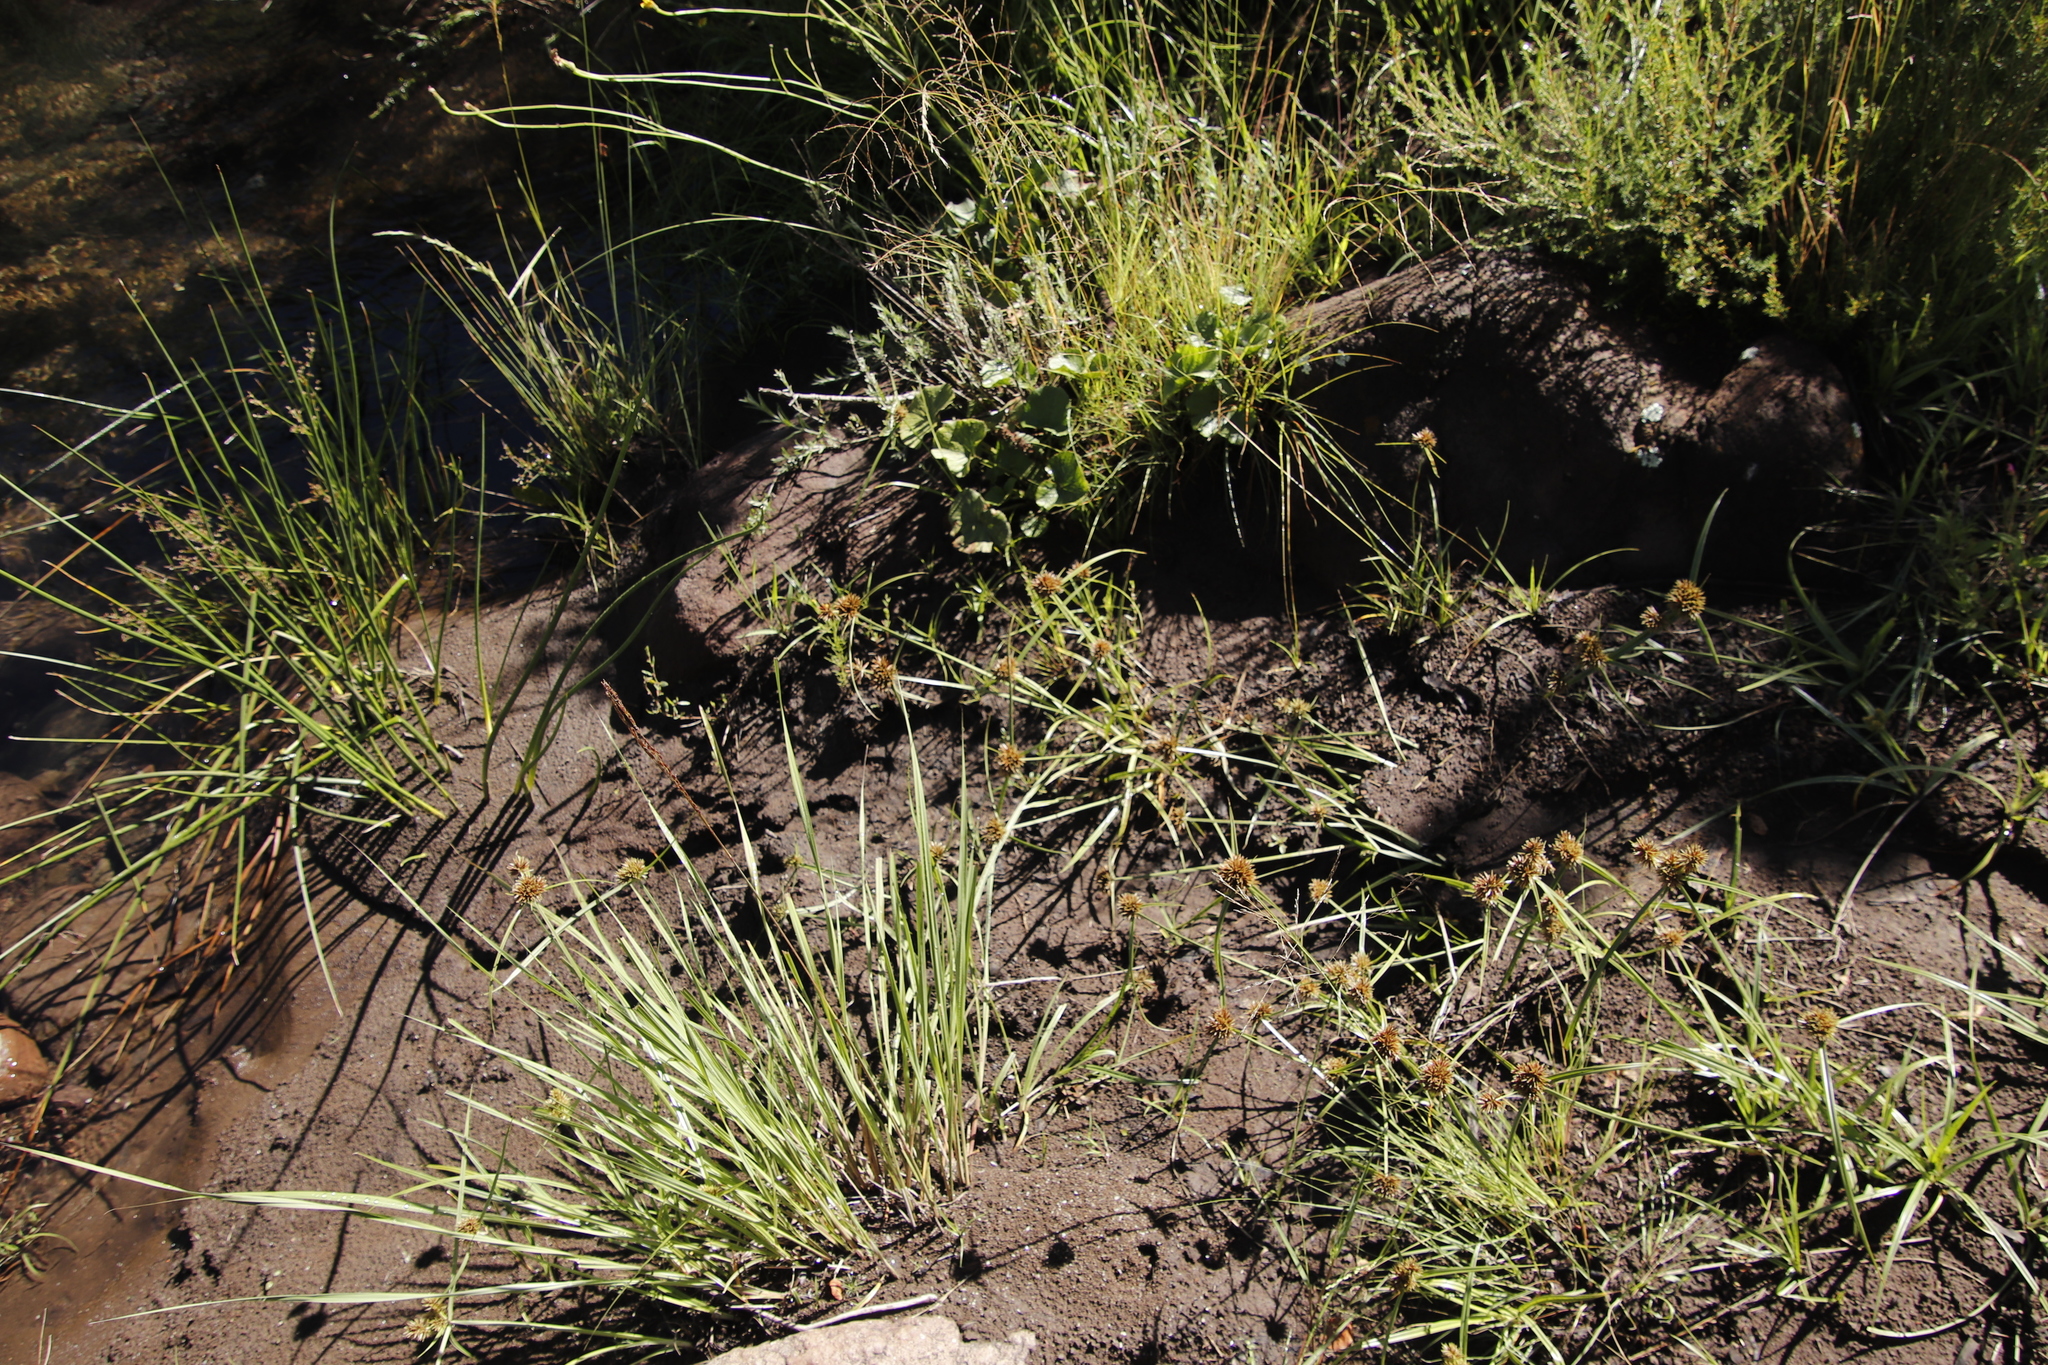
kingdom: Plantae
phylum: Tracheophyta
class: Liliopsida
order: Poales
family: Cyperaceae
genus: Cyperus
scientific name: Cyperus congestus
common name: Dense flat sedge
